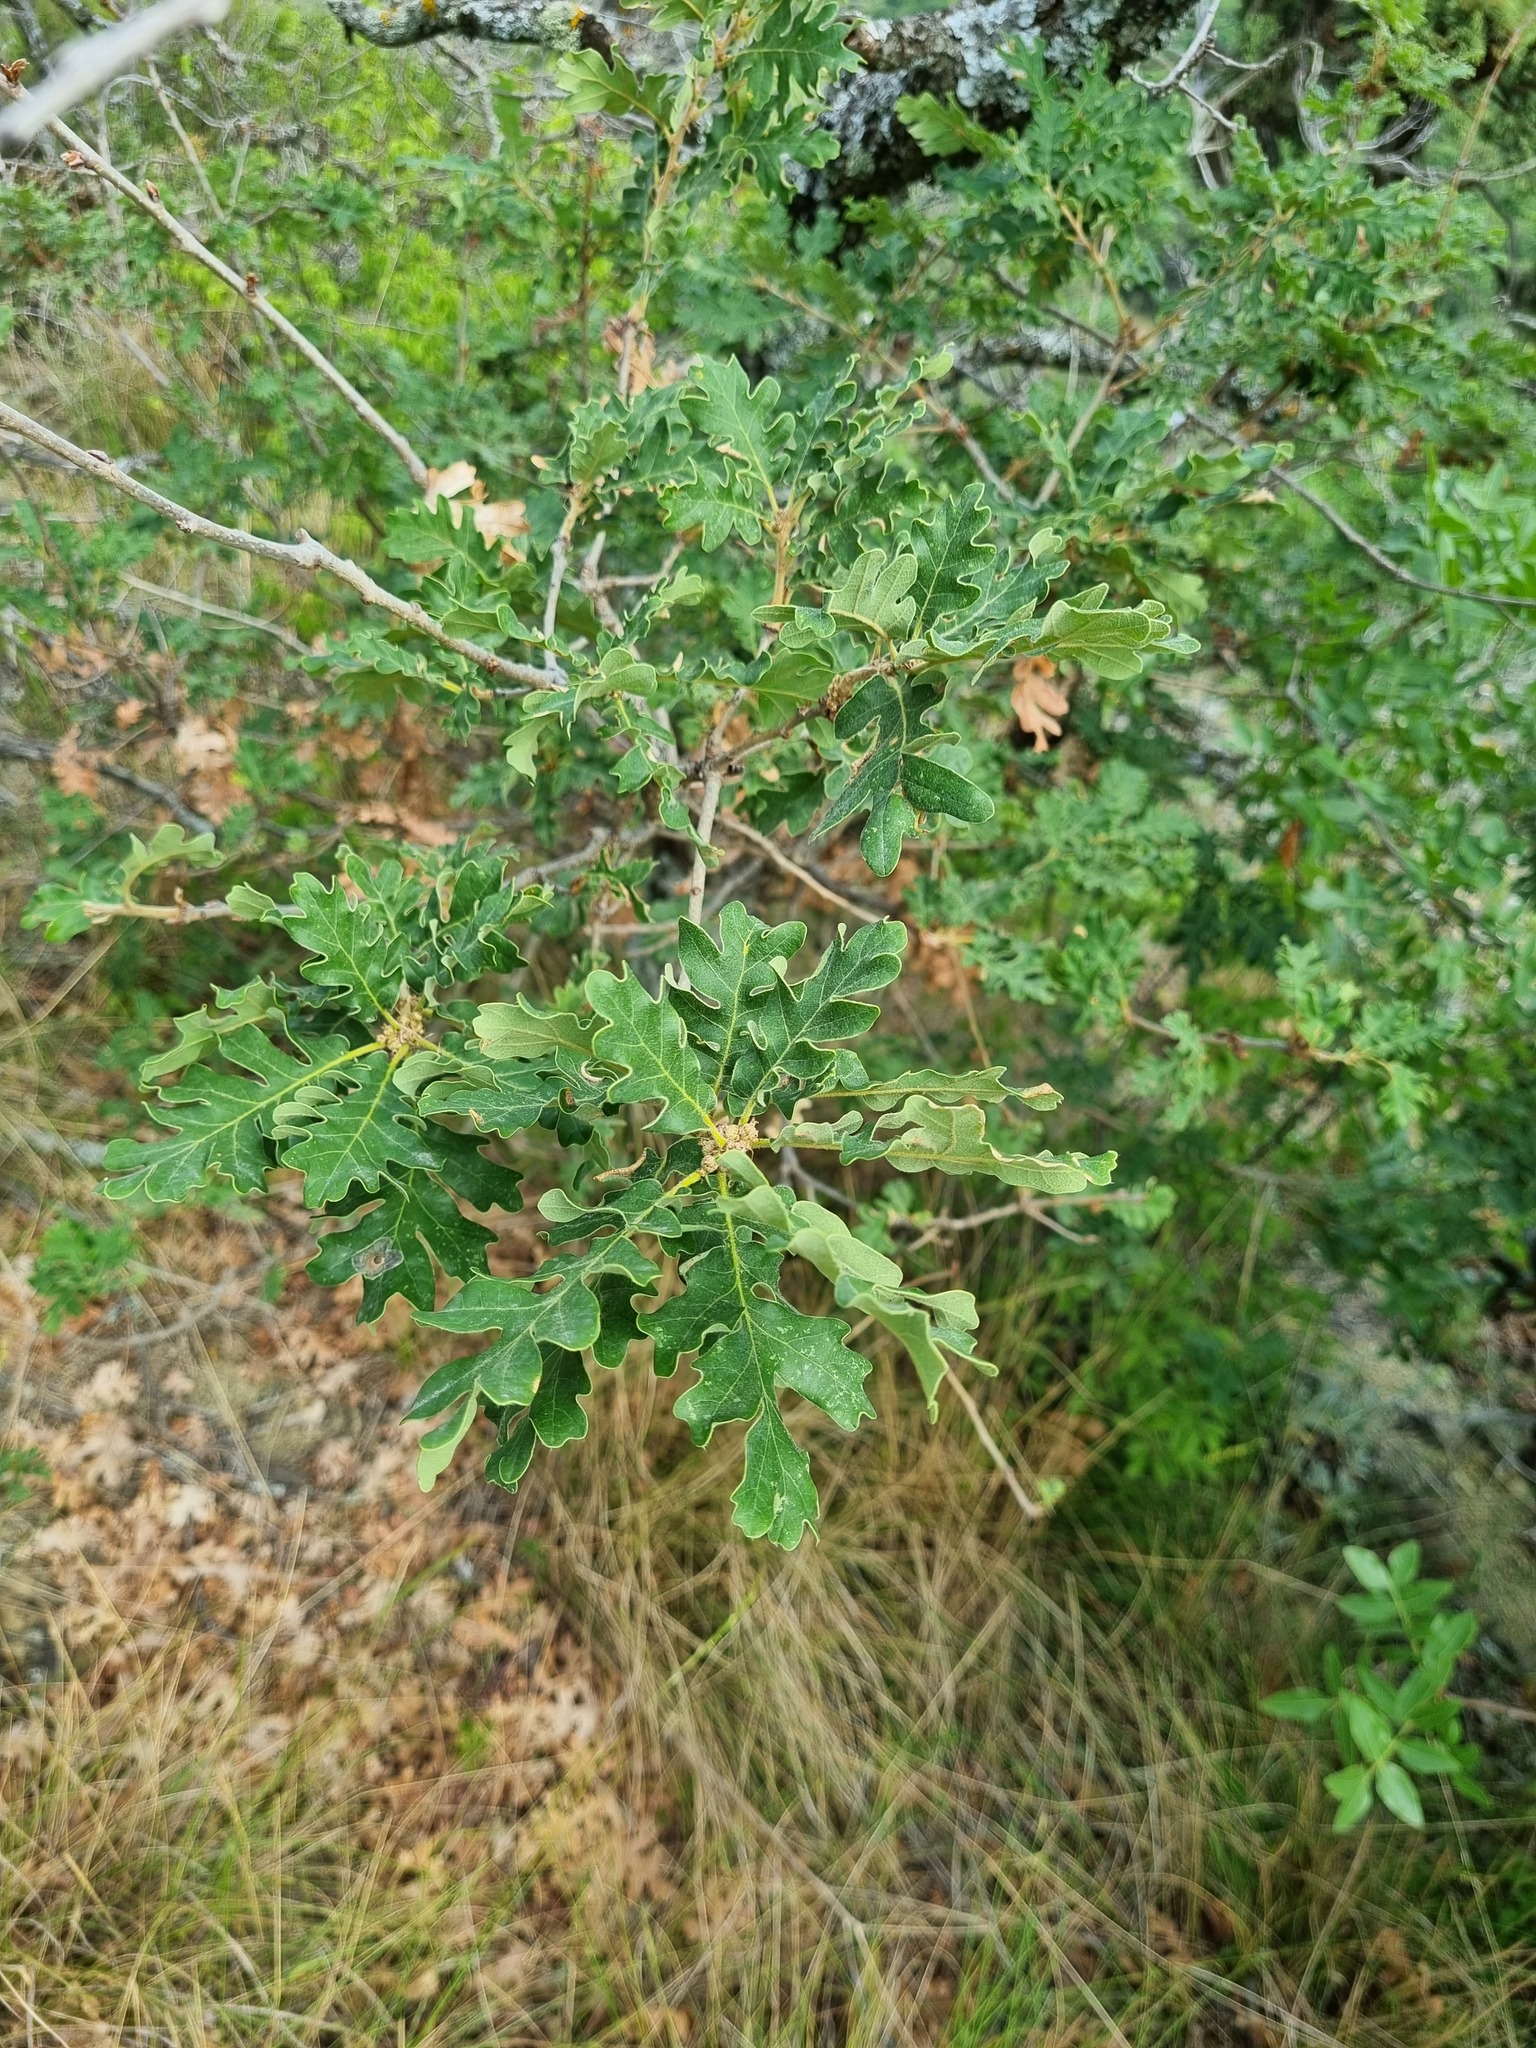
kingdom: Plantae
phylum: Tracheophyta
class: Magnoliopsida
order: Fagales
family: Fagaceae
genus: Quercus
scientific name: Quercus pubescens
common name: Downy oak
